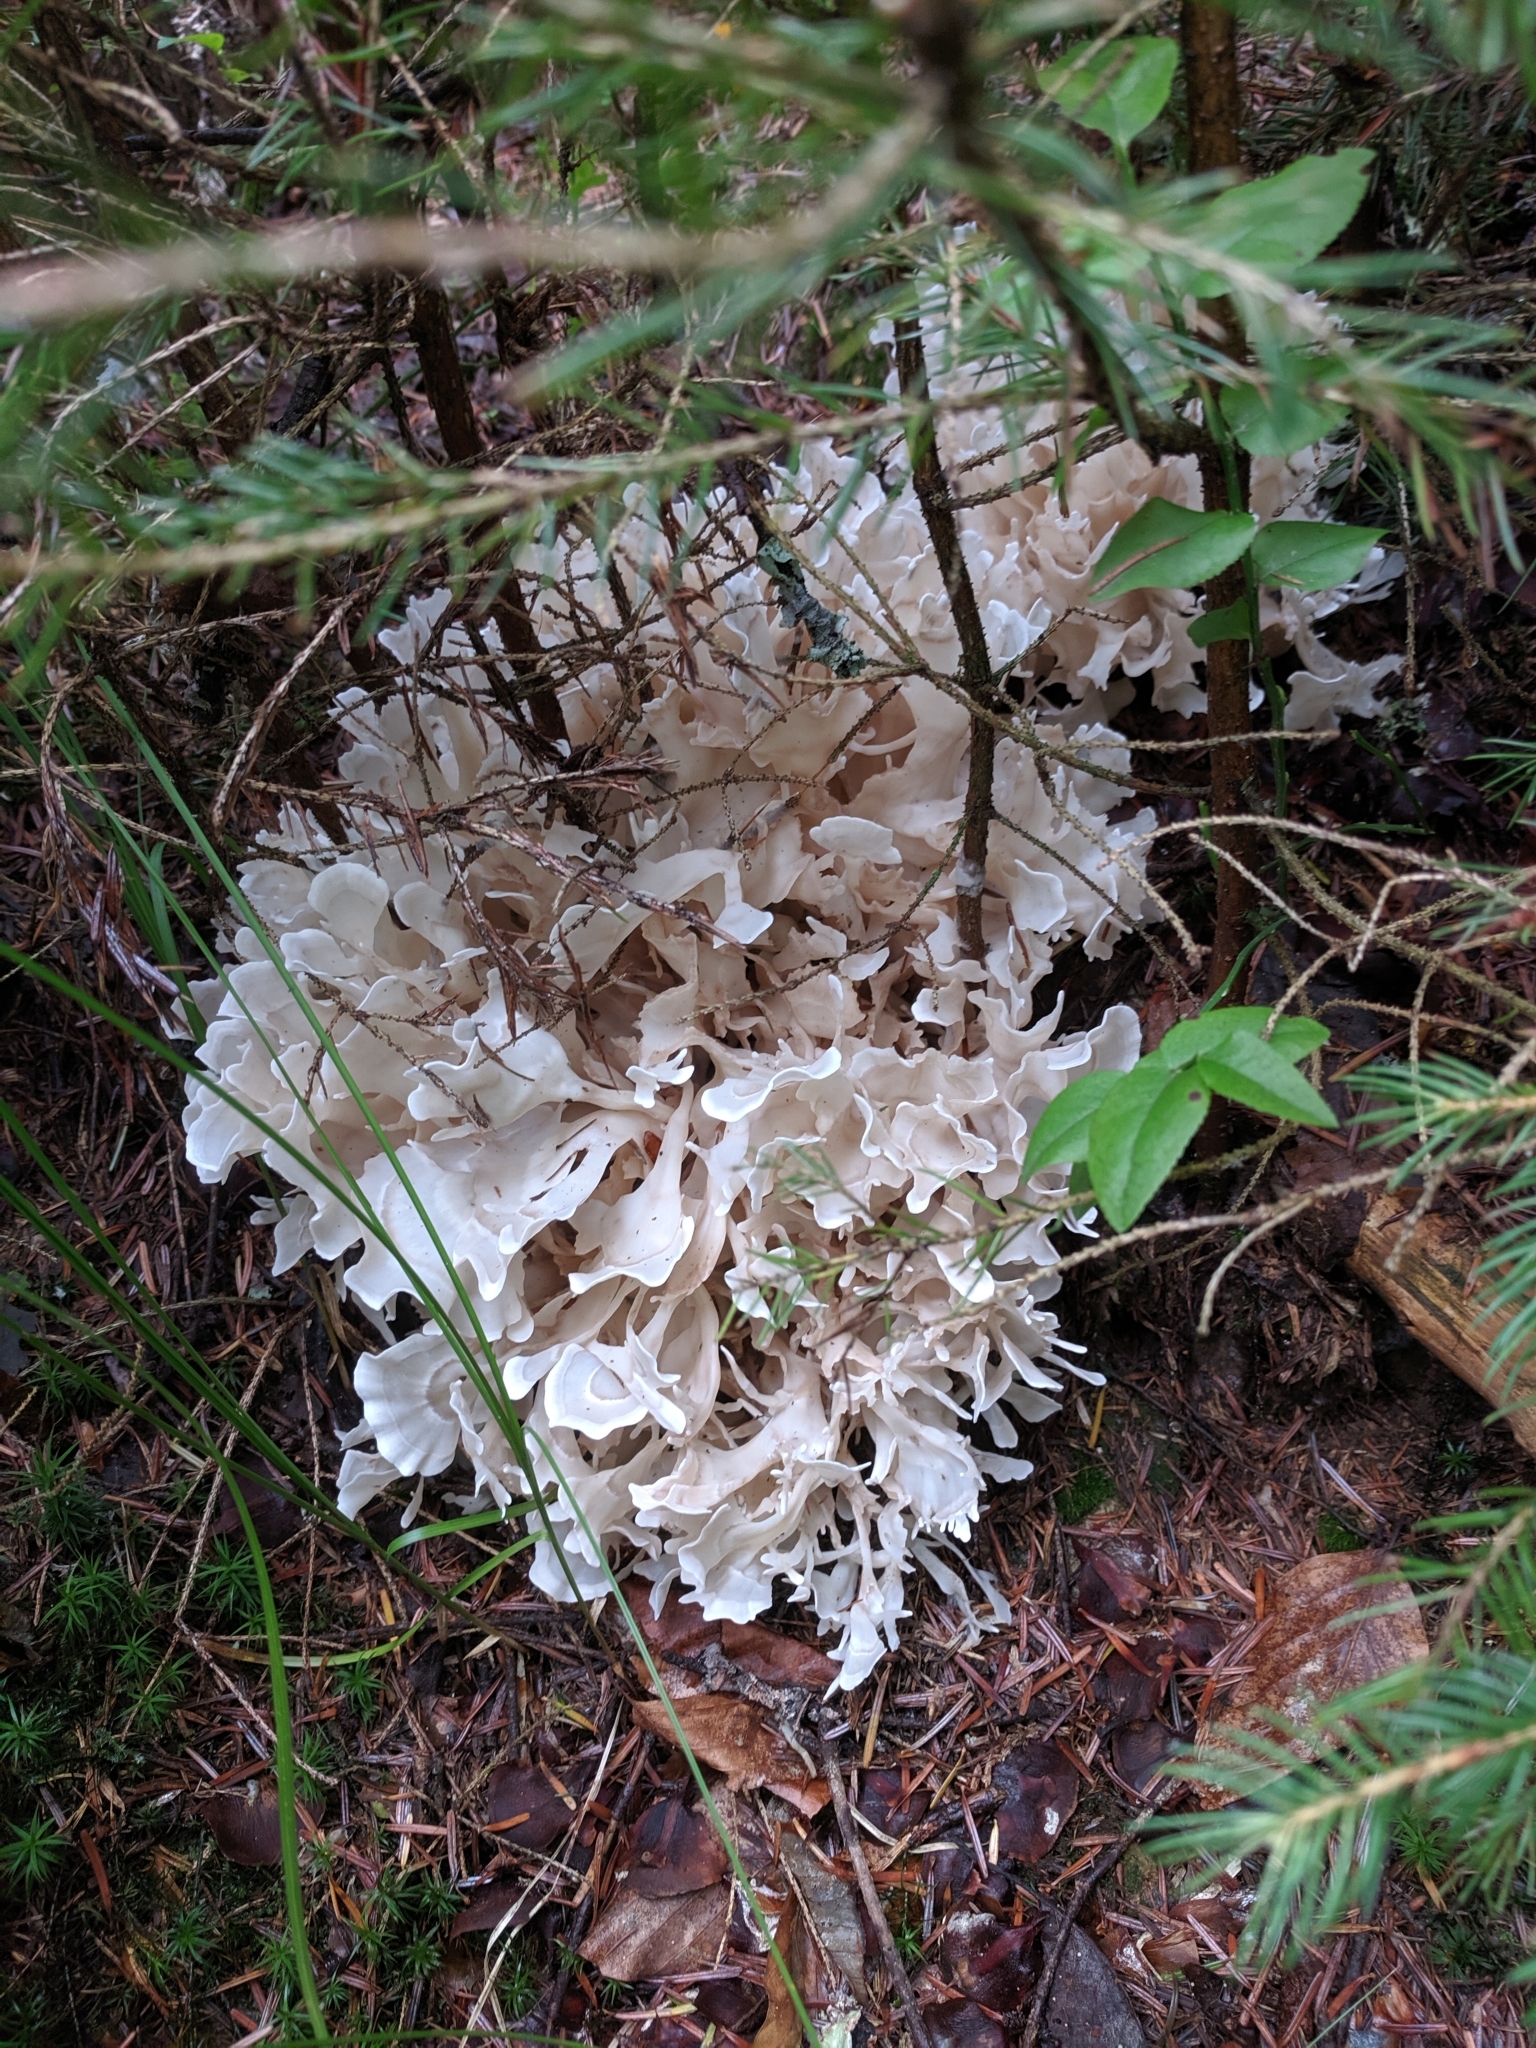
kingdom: Fungi
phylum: Basidiomycota
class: Agaricomycetes
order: Polyporales
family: Sparassidaceae
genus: Sparassis
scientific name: Sparassis brevipes
